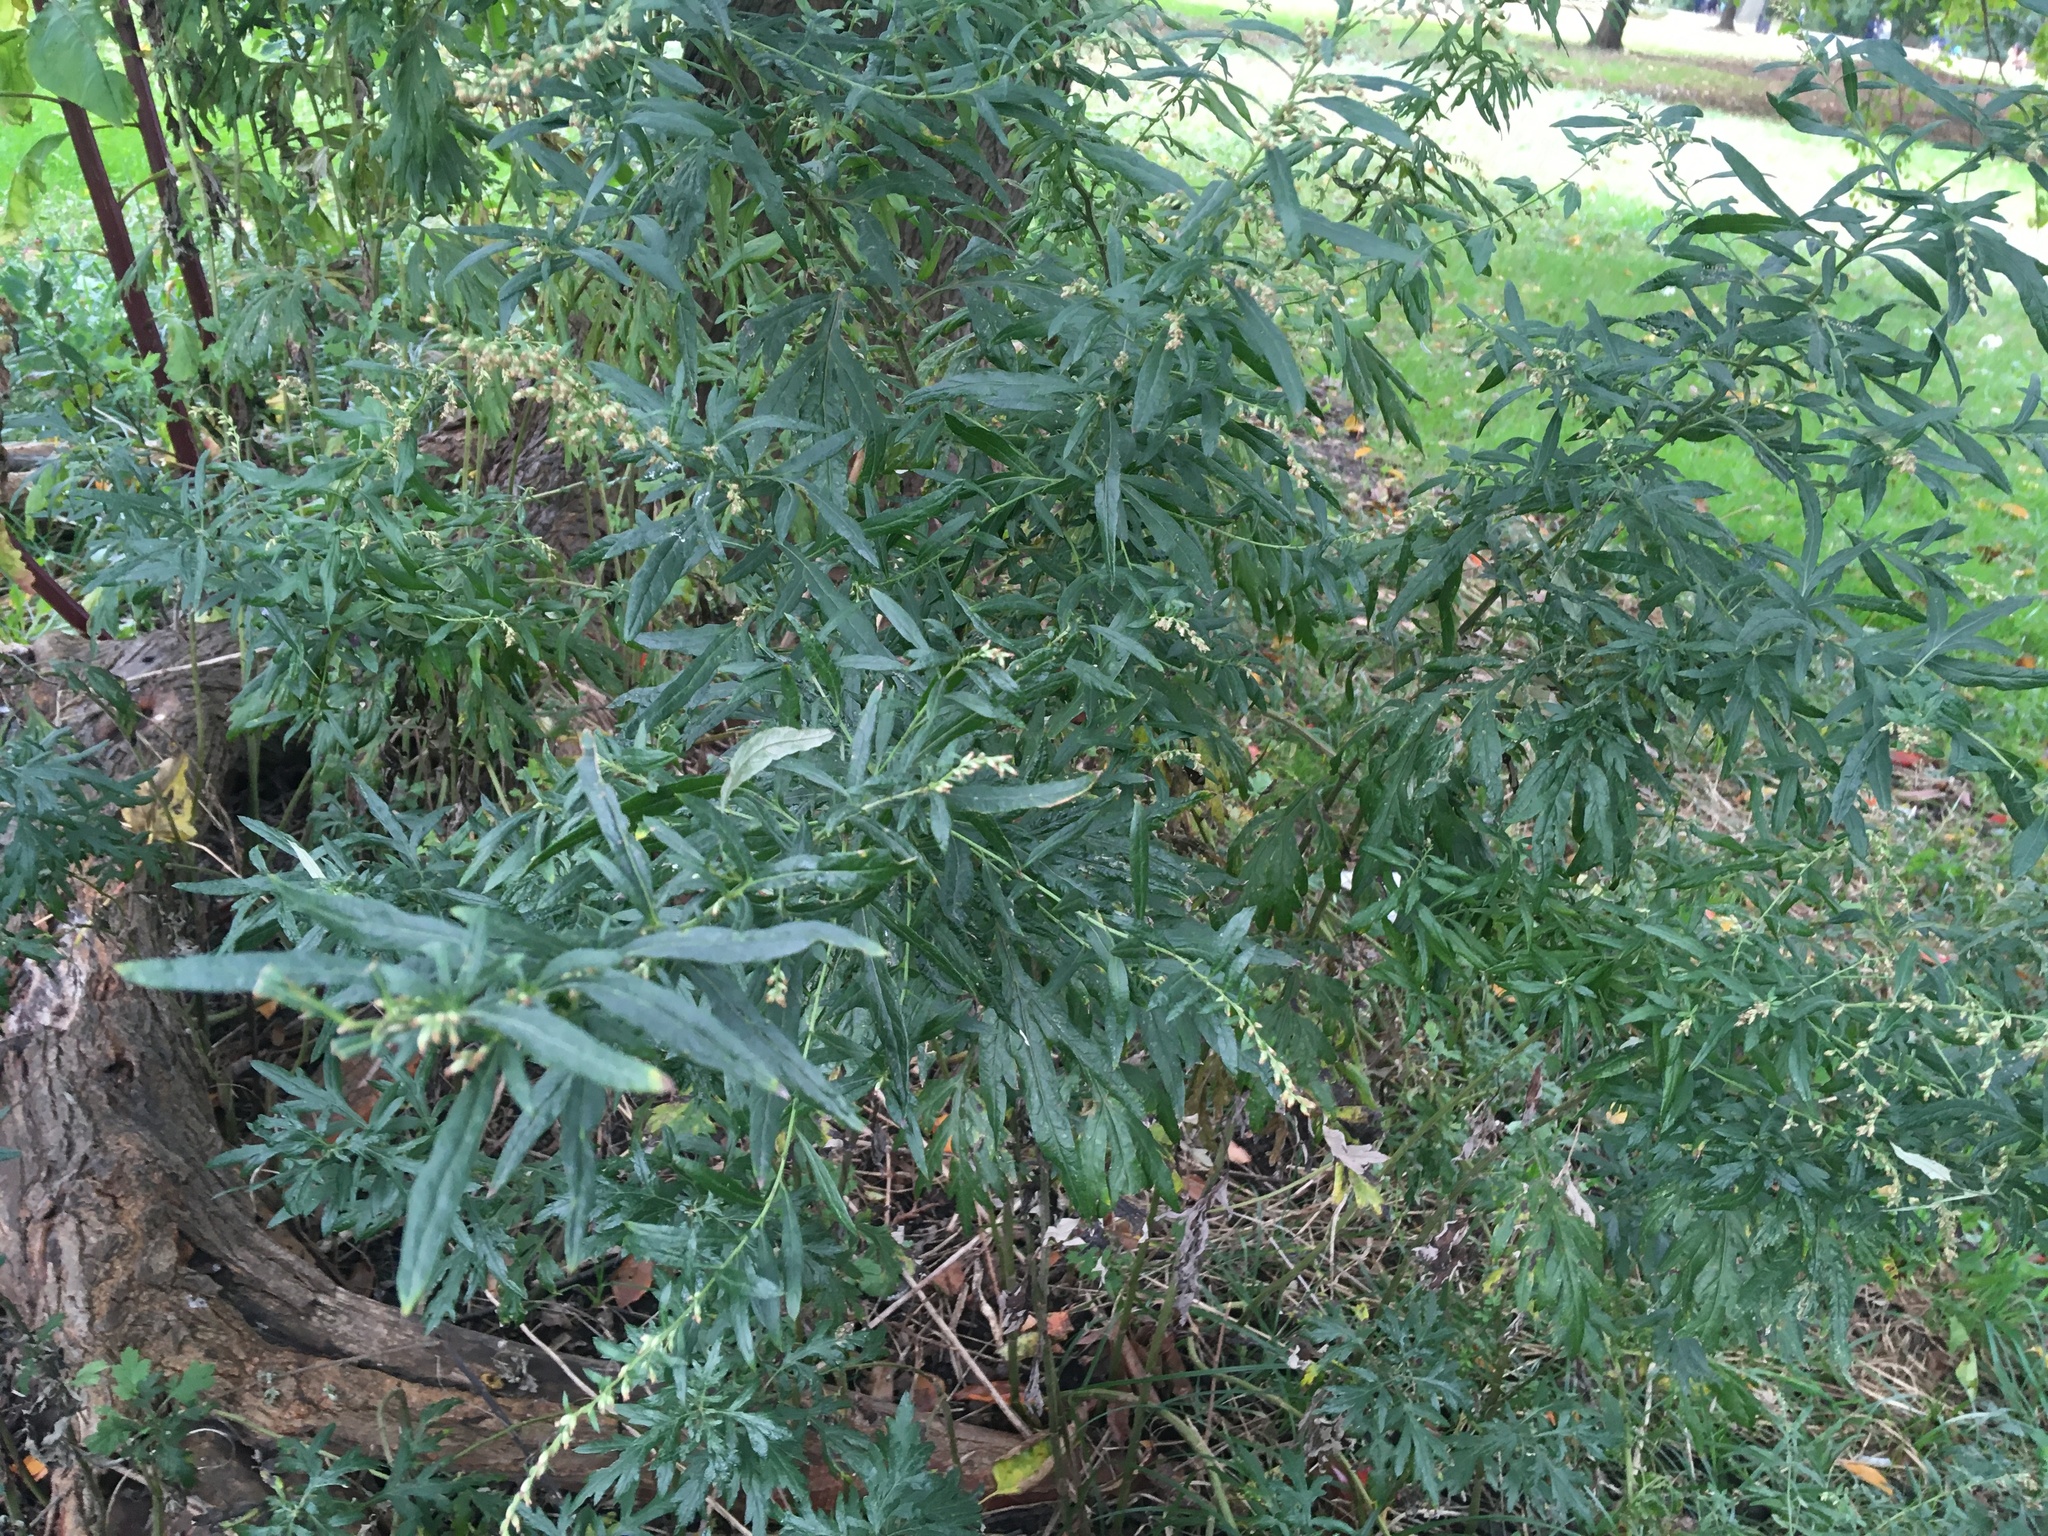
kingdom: Plantae
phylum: Tracheophyta
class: Magnoliopsida
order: Asterales
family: Asteraceae
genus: Artemisia
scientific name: Artemisia vulgaris
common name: Mugwort
